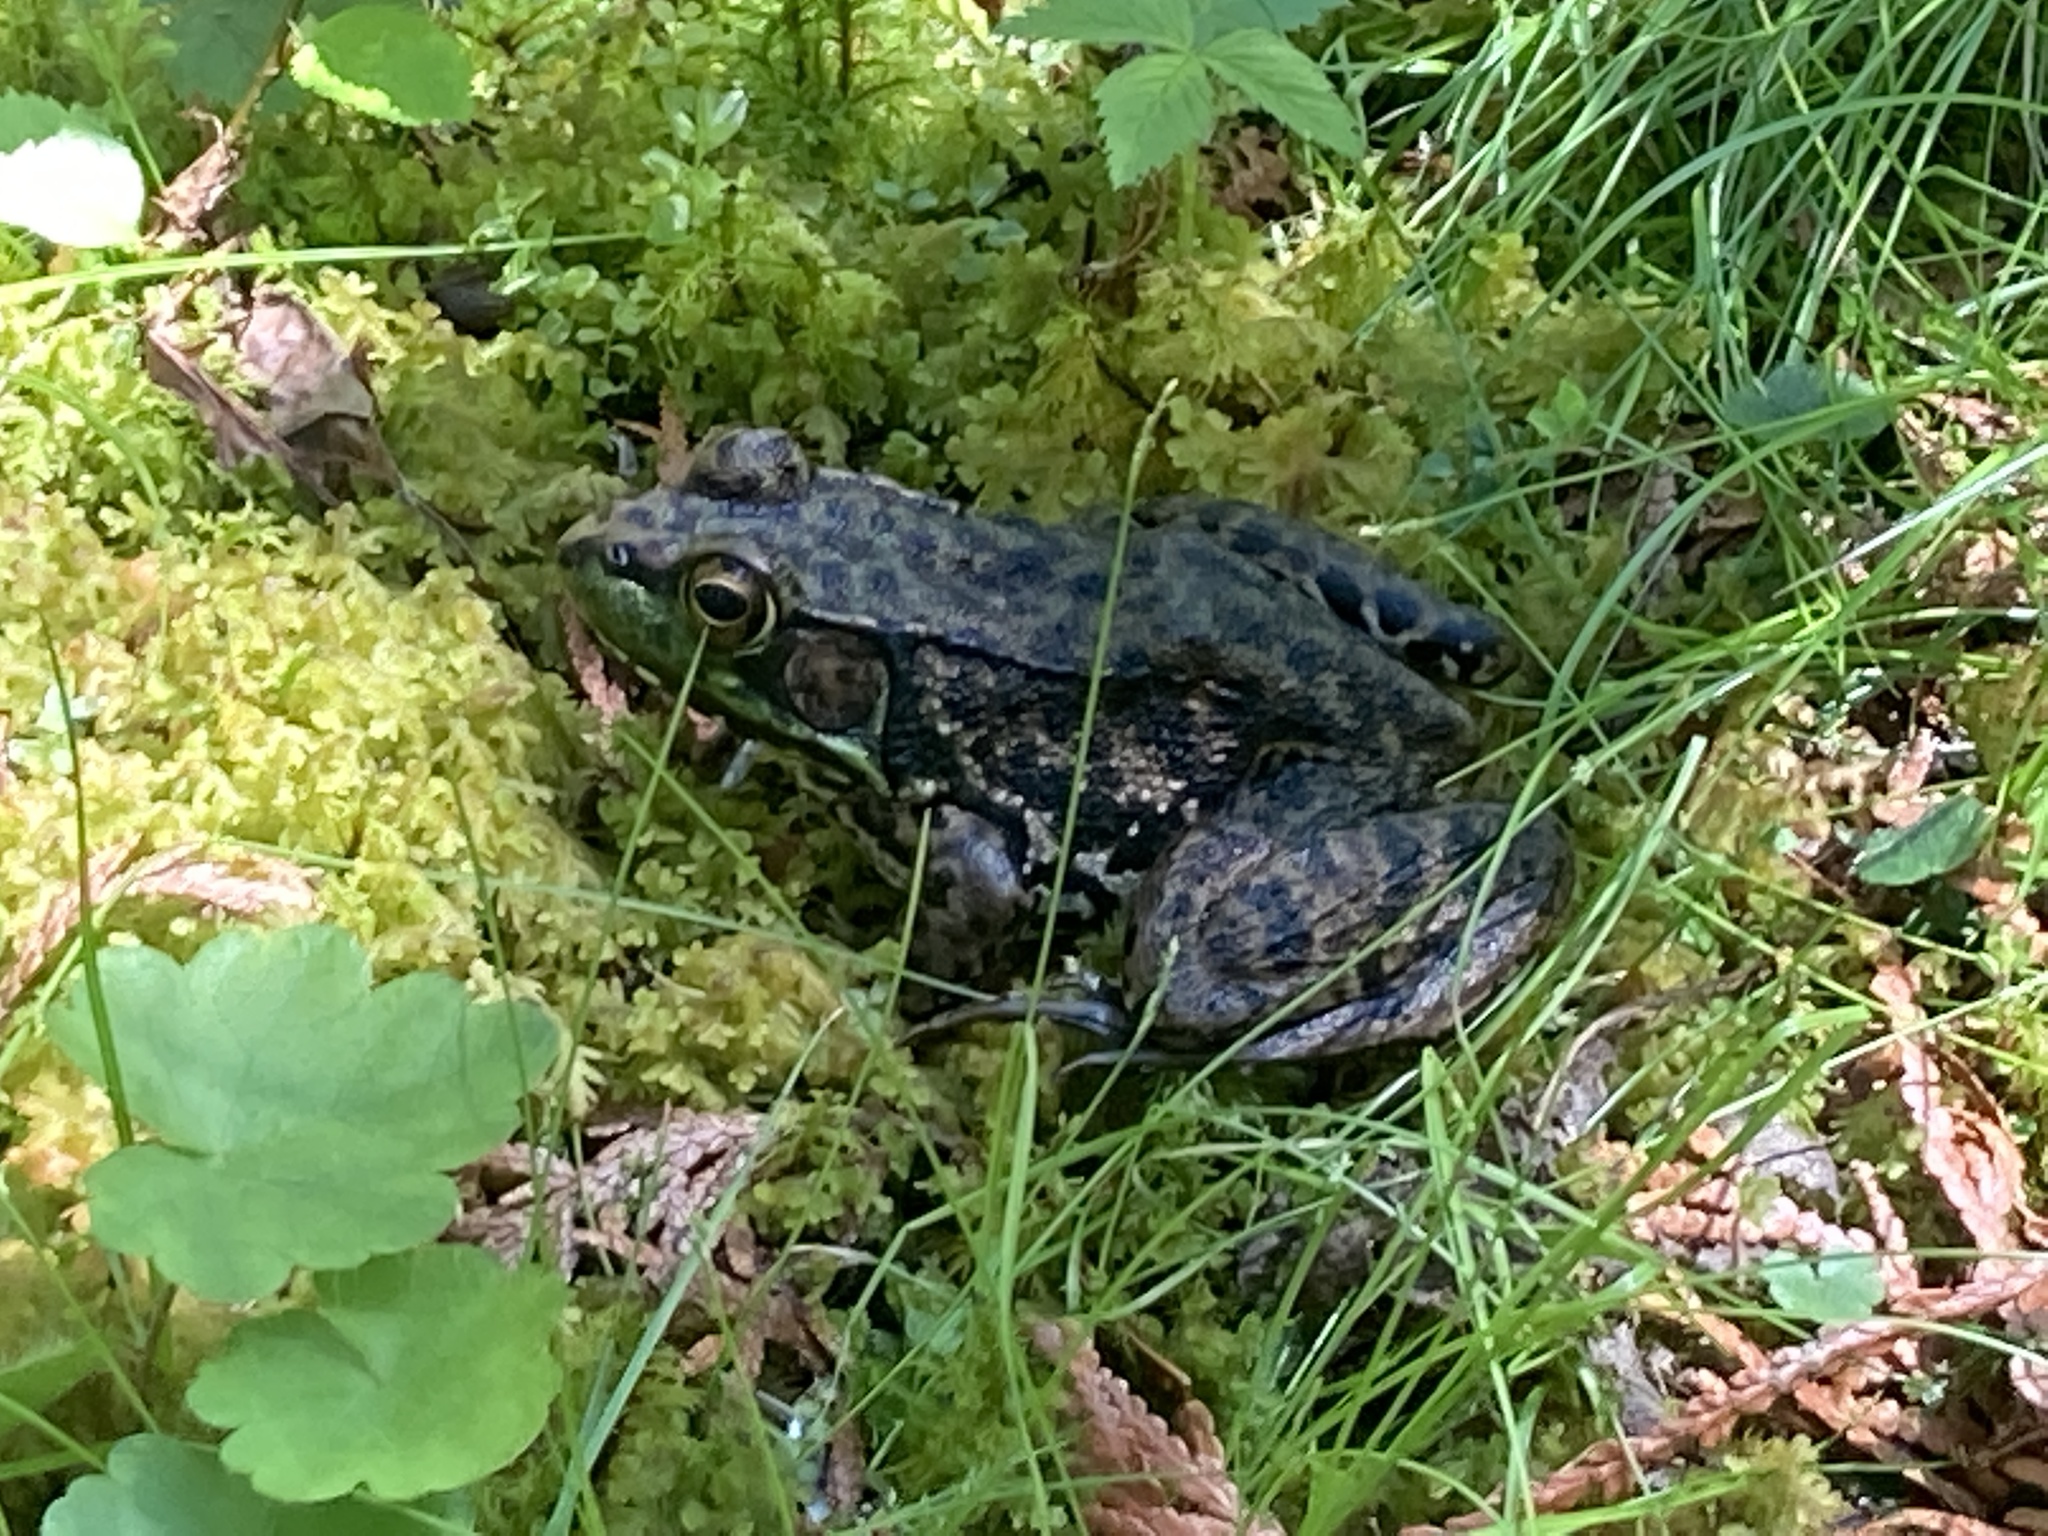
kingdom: Animalia
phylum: Chordata
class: Amphibia
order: Anura
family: Ranidae
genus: Lithobates
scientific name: Lithobates clamitans
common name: Green frog
